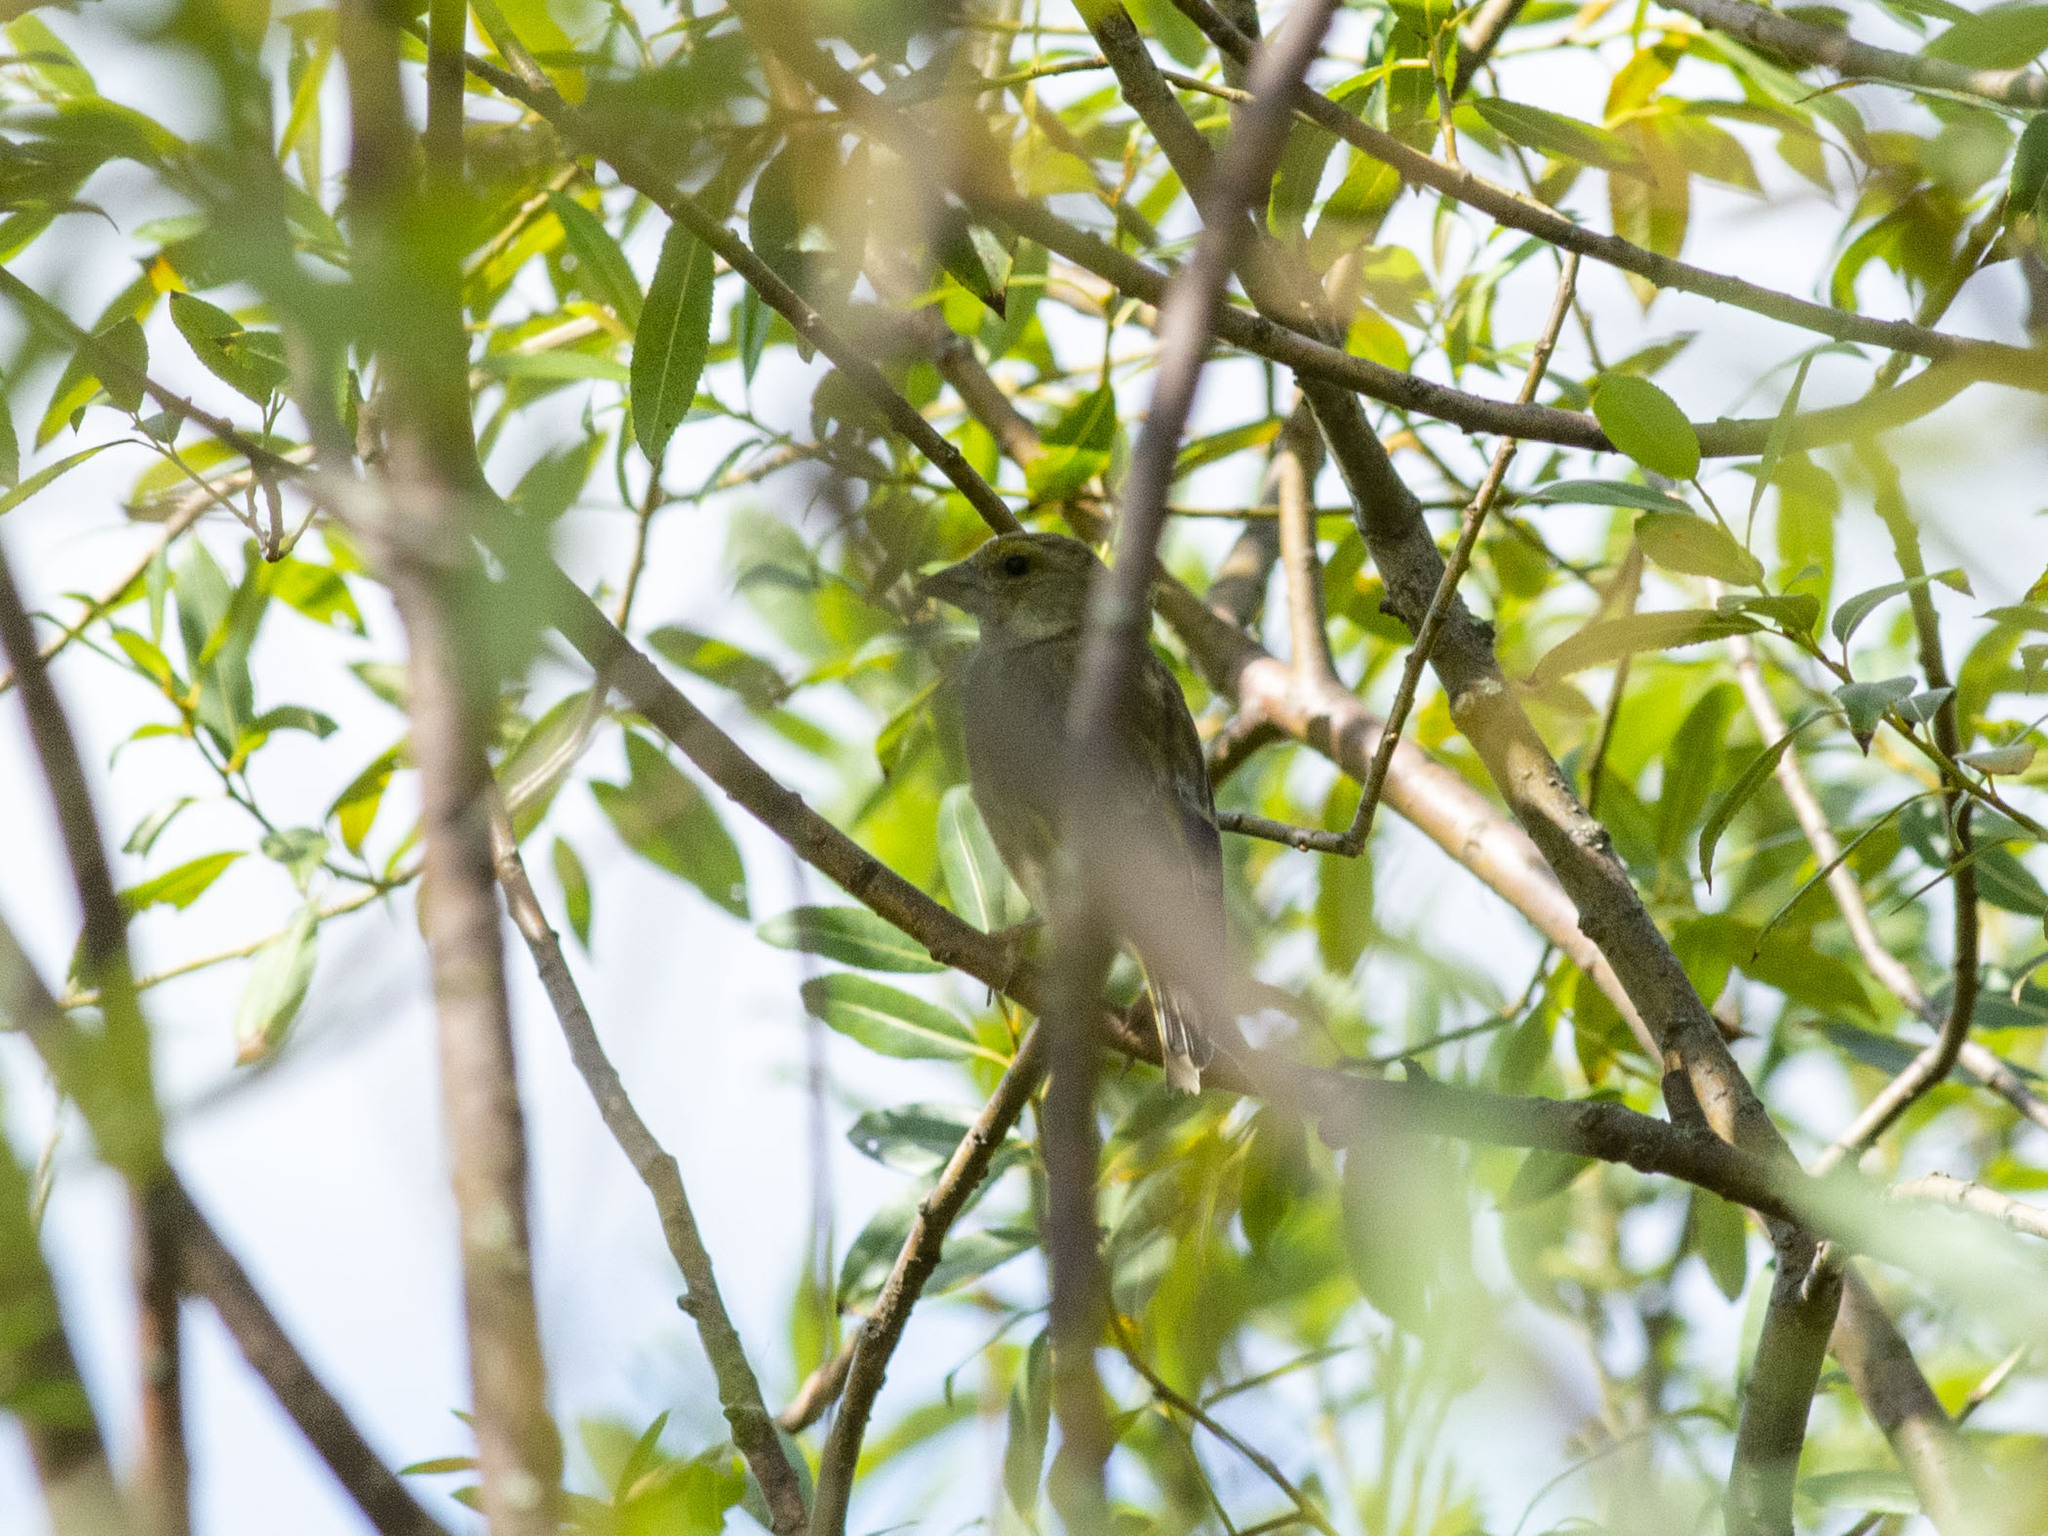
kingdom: Plantae
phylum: Tracheophyta
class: Liliopsida
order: Poales
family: Poaceae
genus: Chloris
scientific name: Chloris chloris
